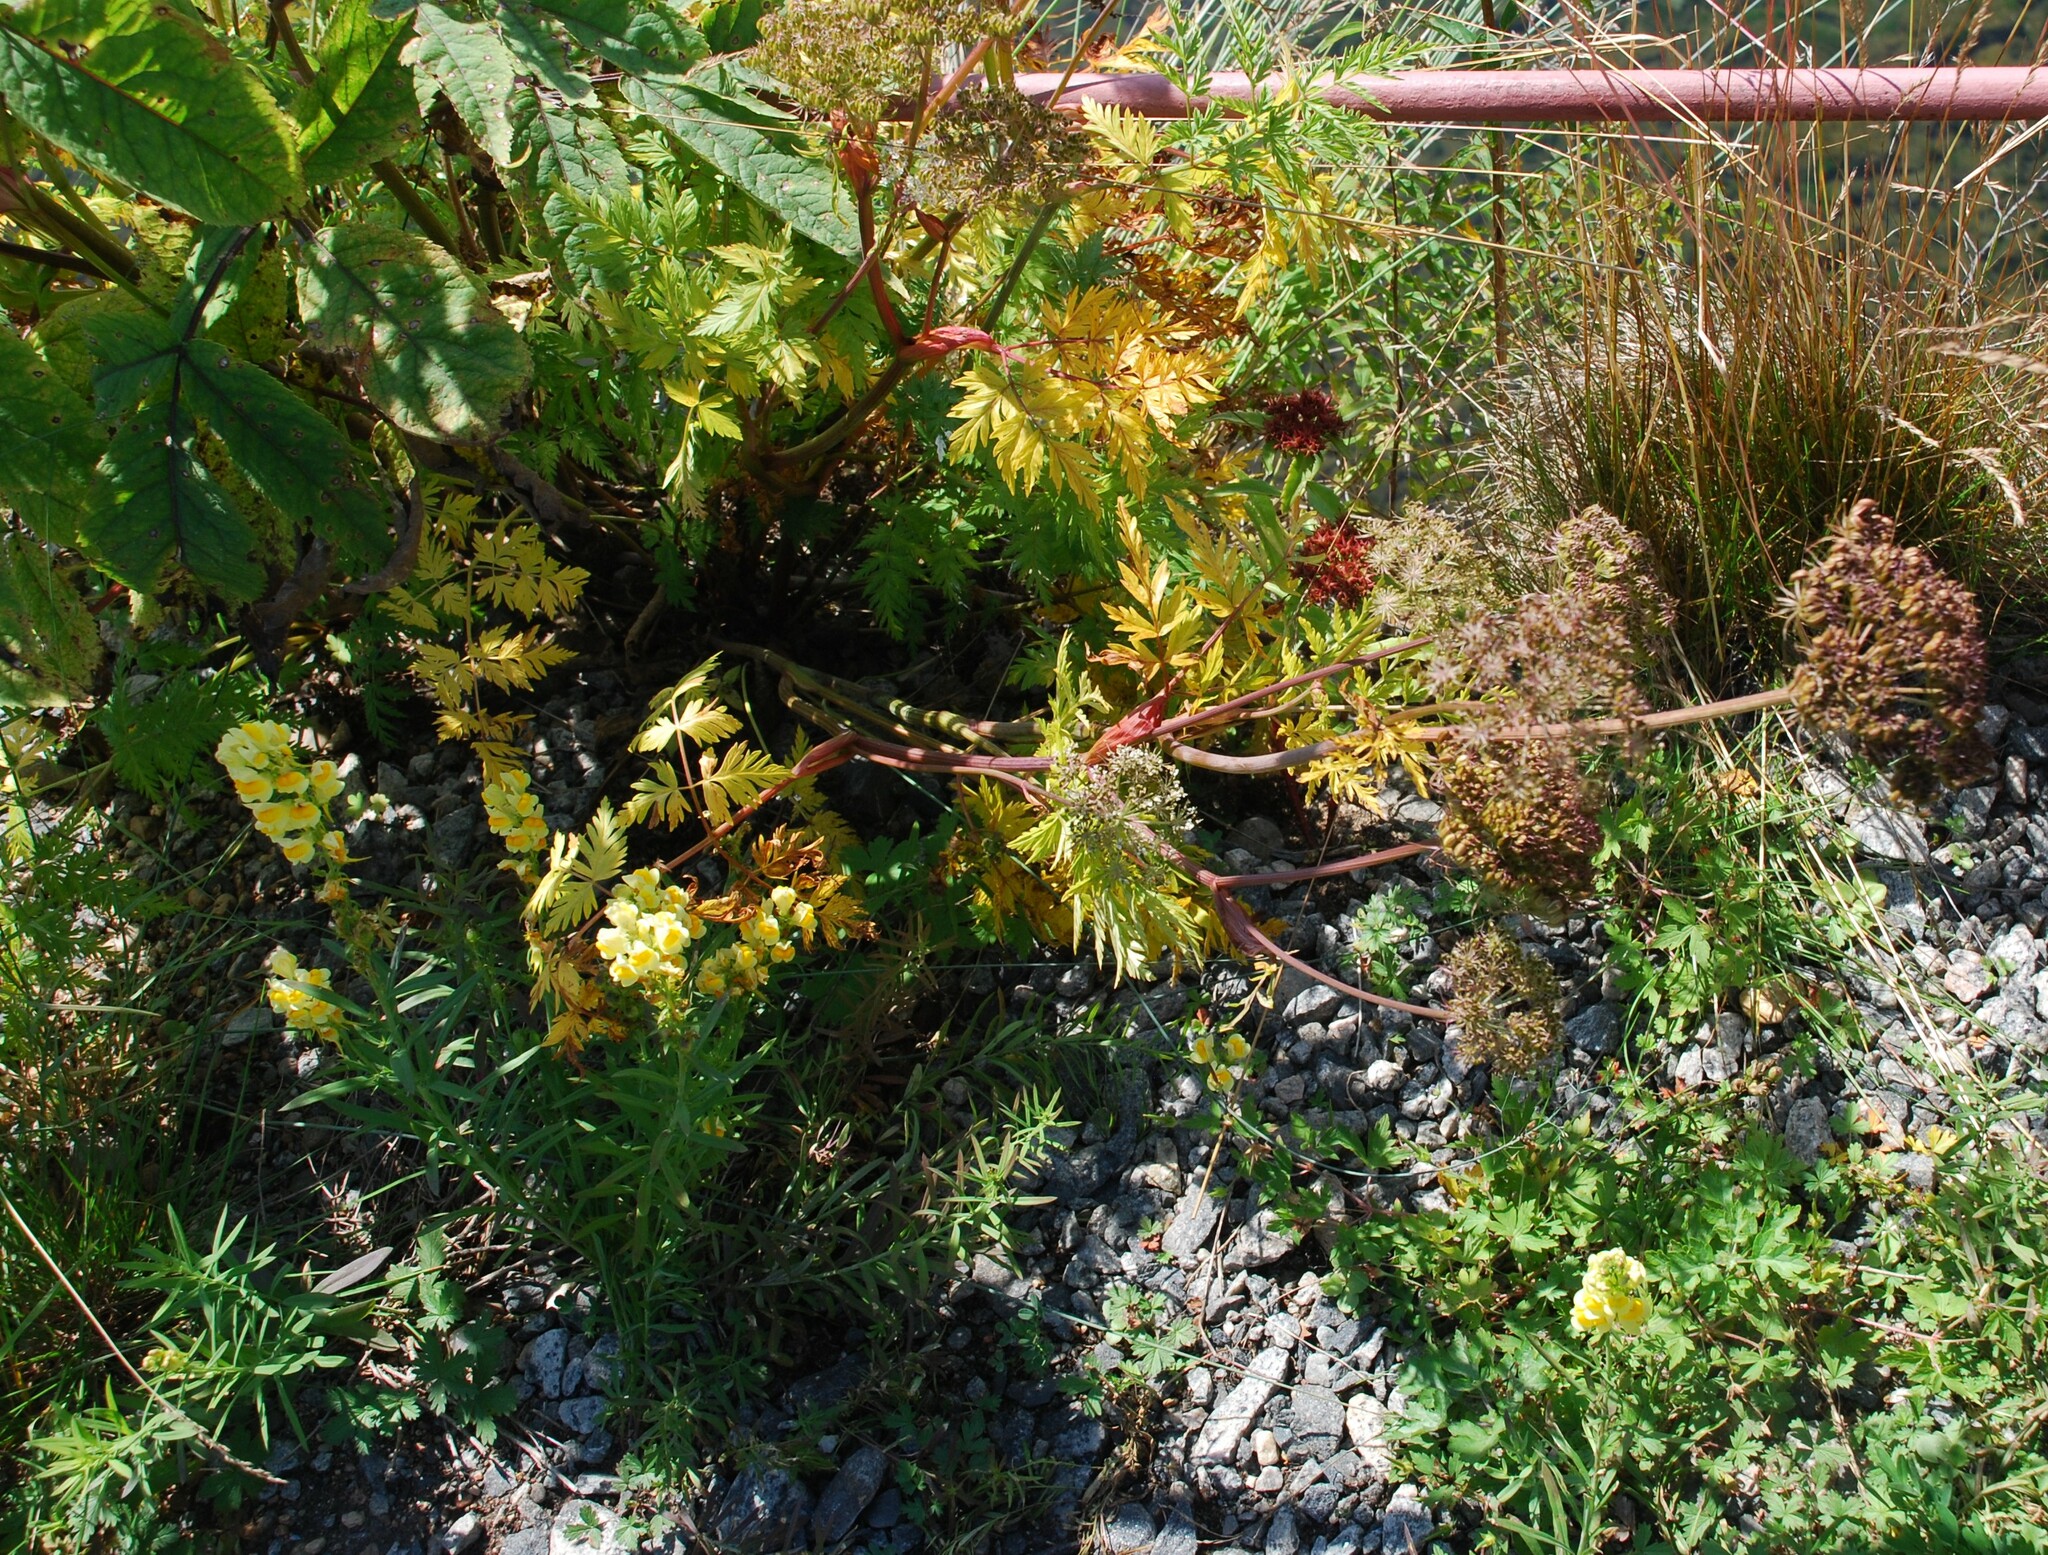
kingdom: Plantae
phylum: Tracheophyta
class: Magnoliopsida
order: Apiales
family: Apiaceae
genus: Conioselinum
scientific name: Conioselinum tataricum
